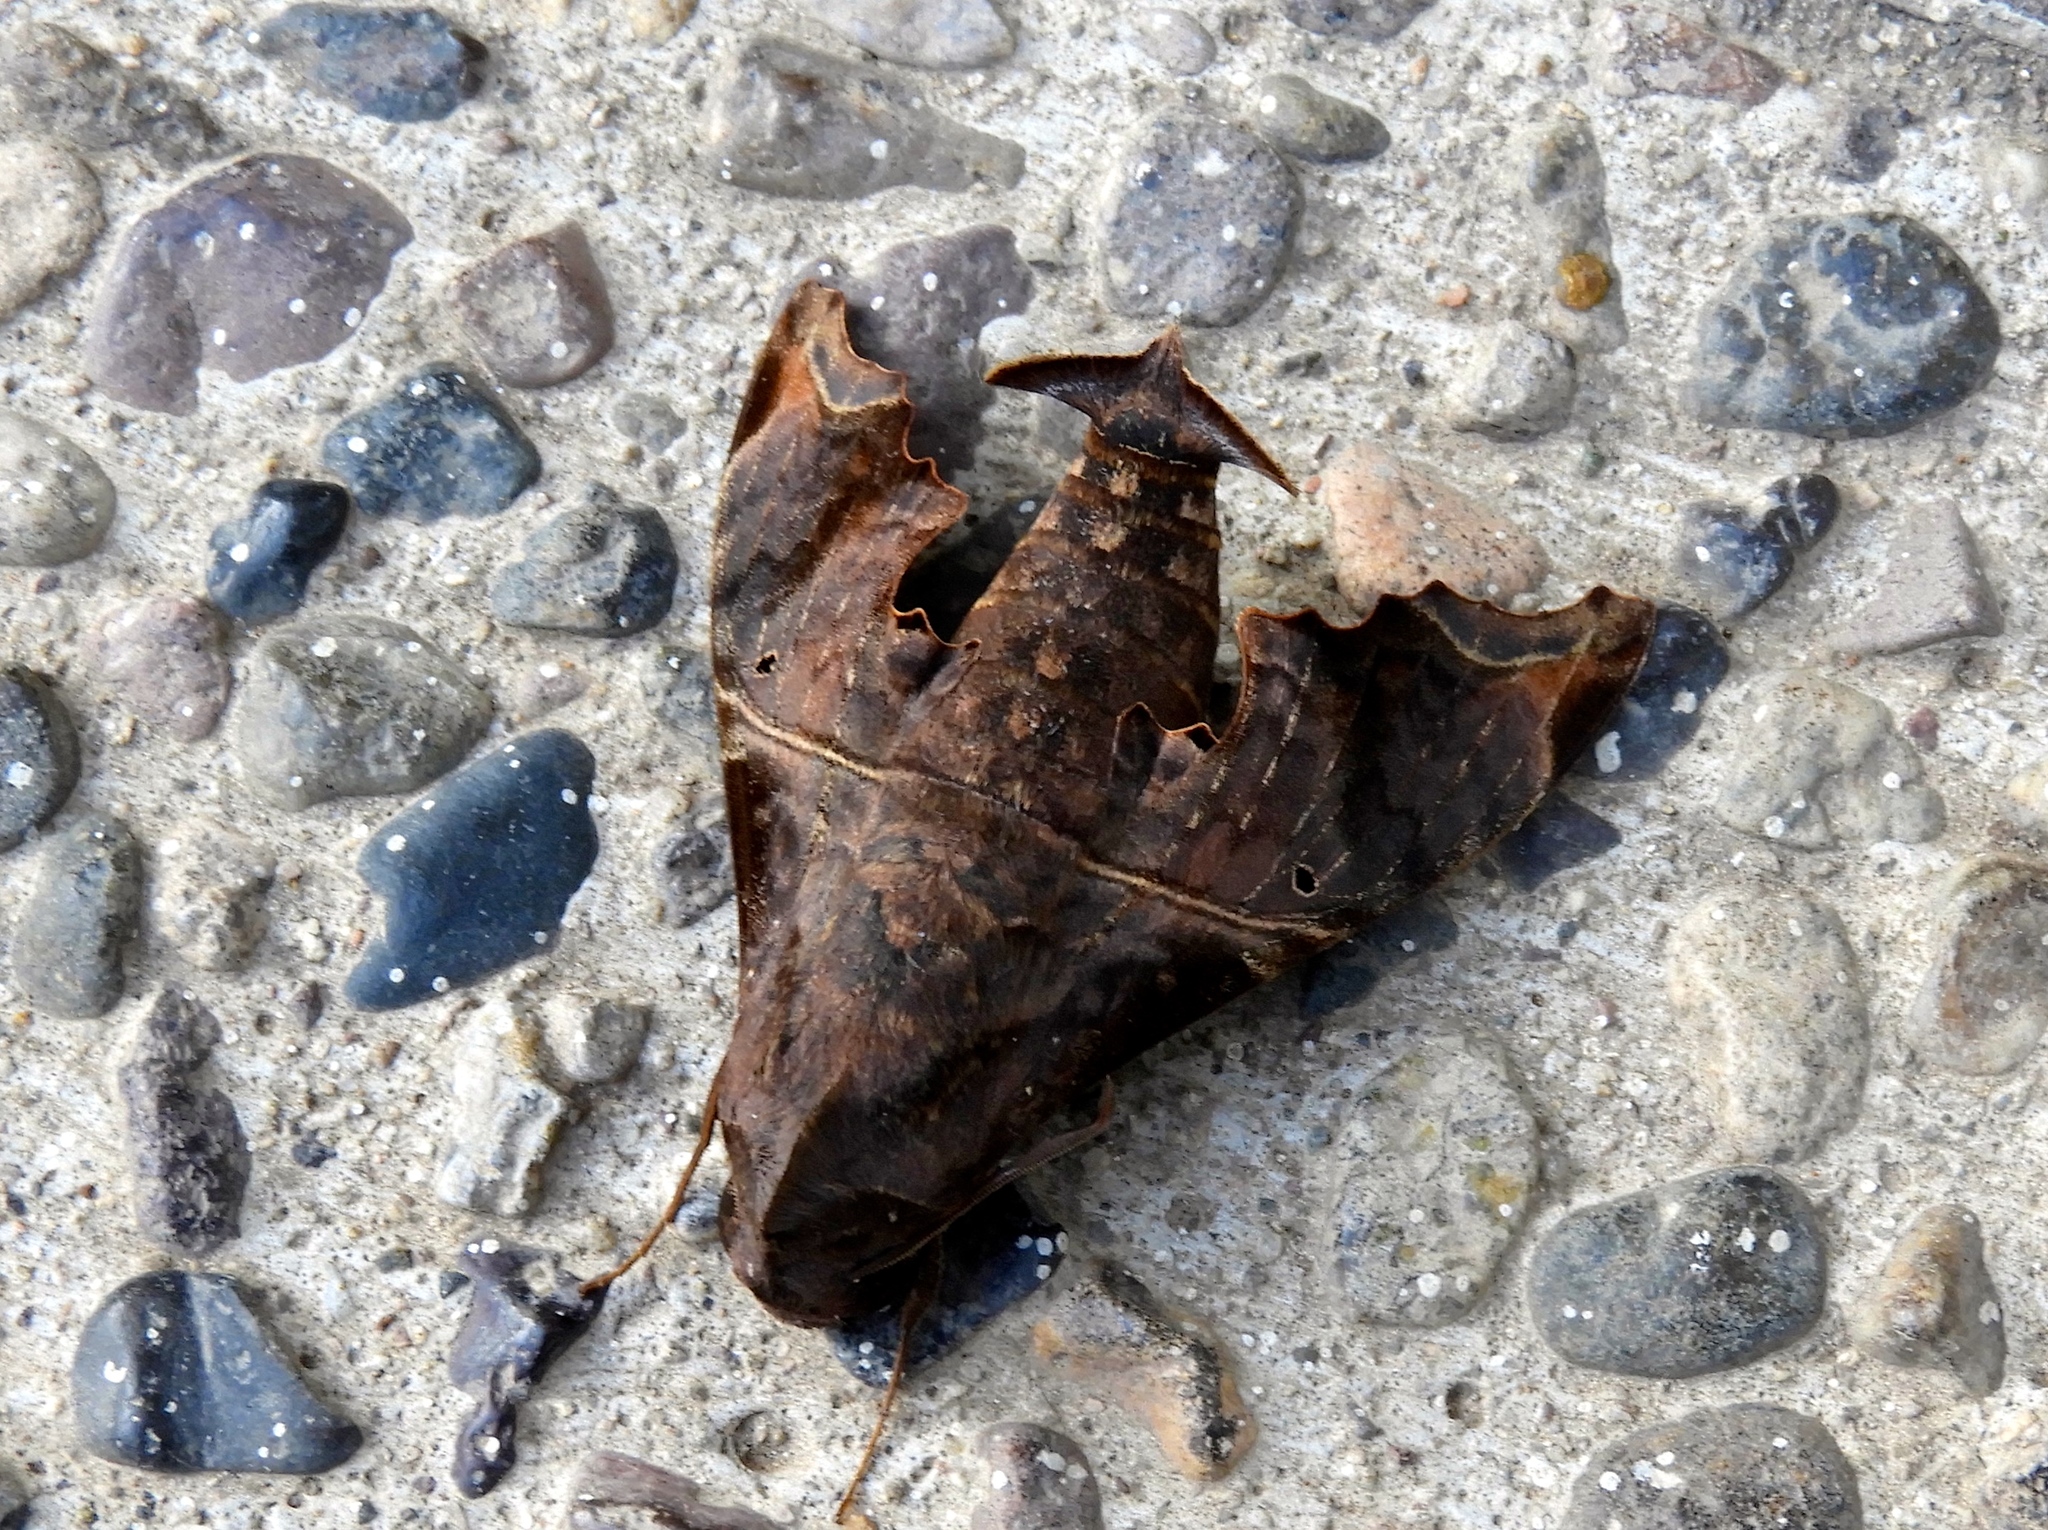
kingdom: Animalia
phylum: Arthropoda
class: Insecta
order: Lepidoptera
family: Sphingidae
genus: Enyo
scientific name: Enyo lugubris
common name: Mournful sphinx
